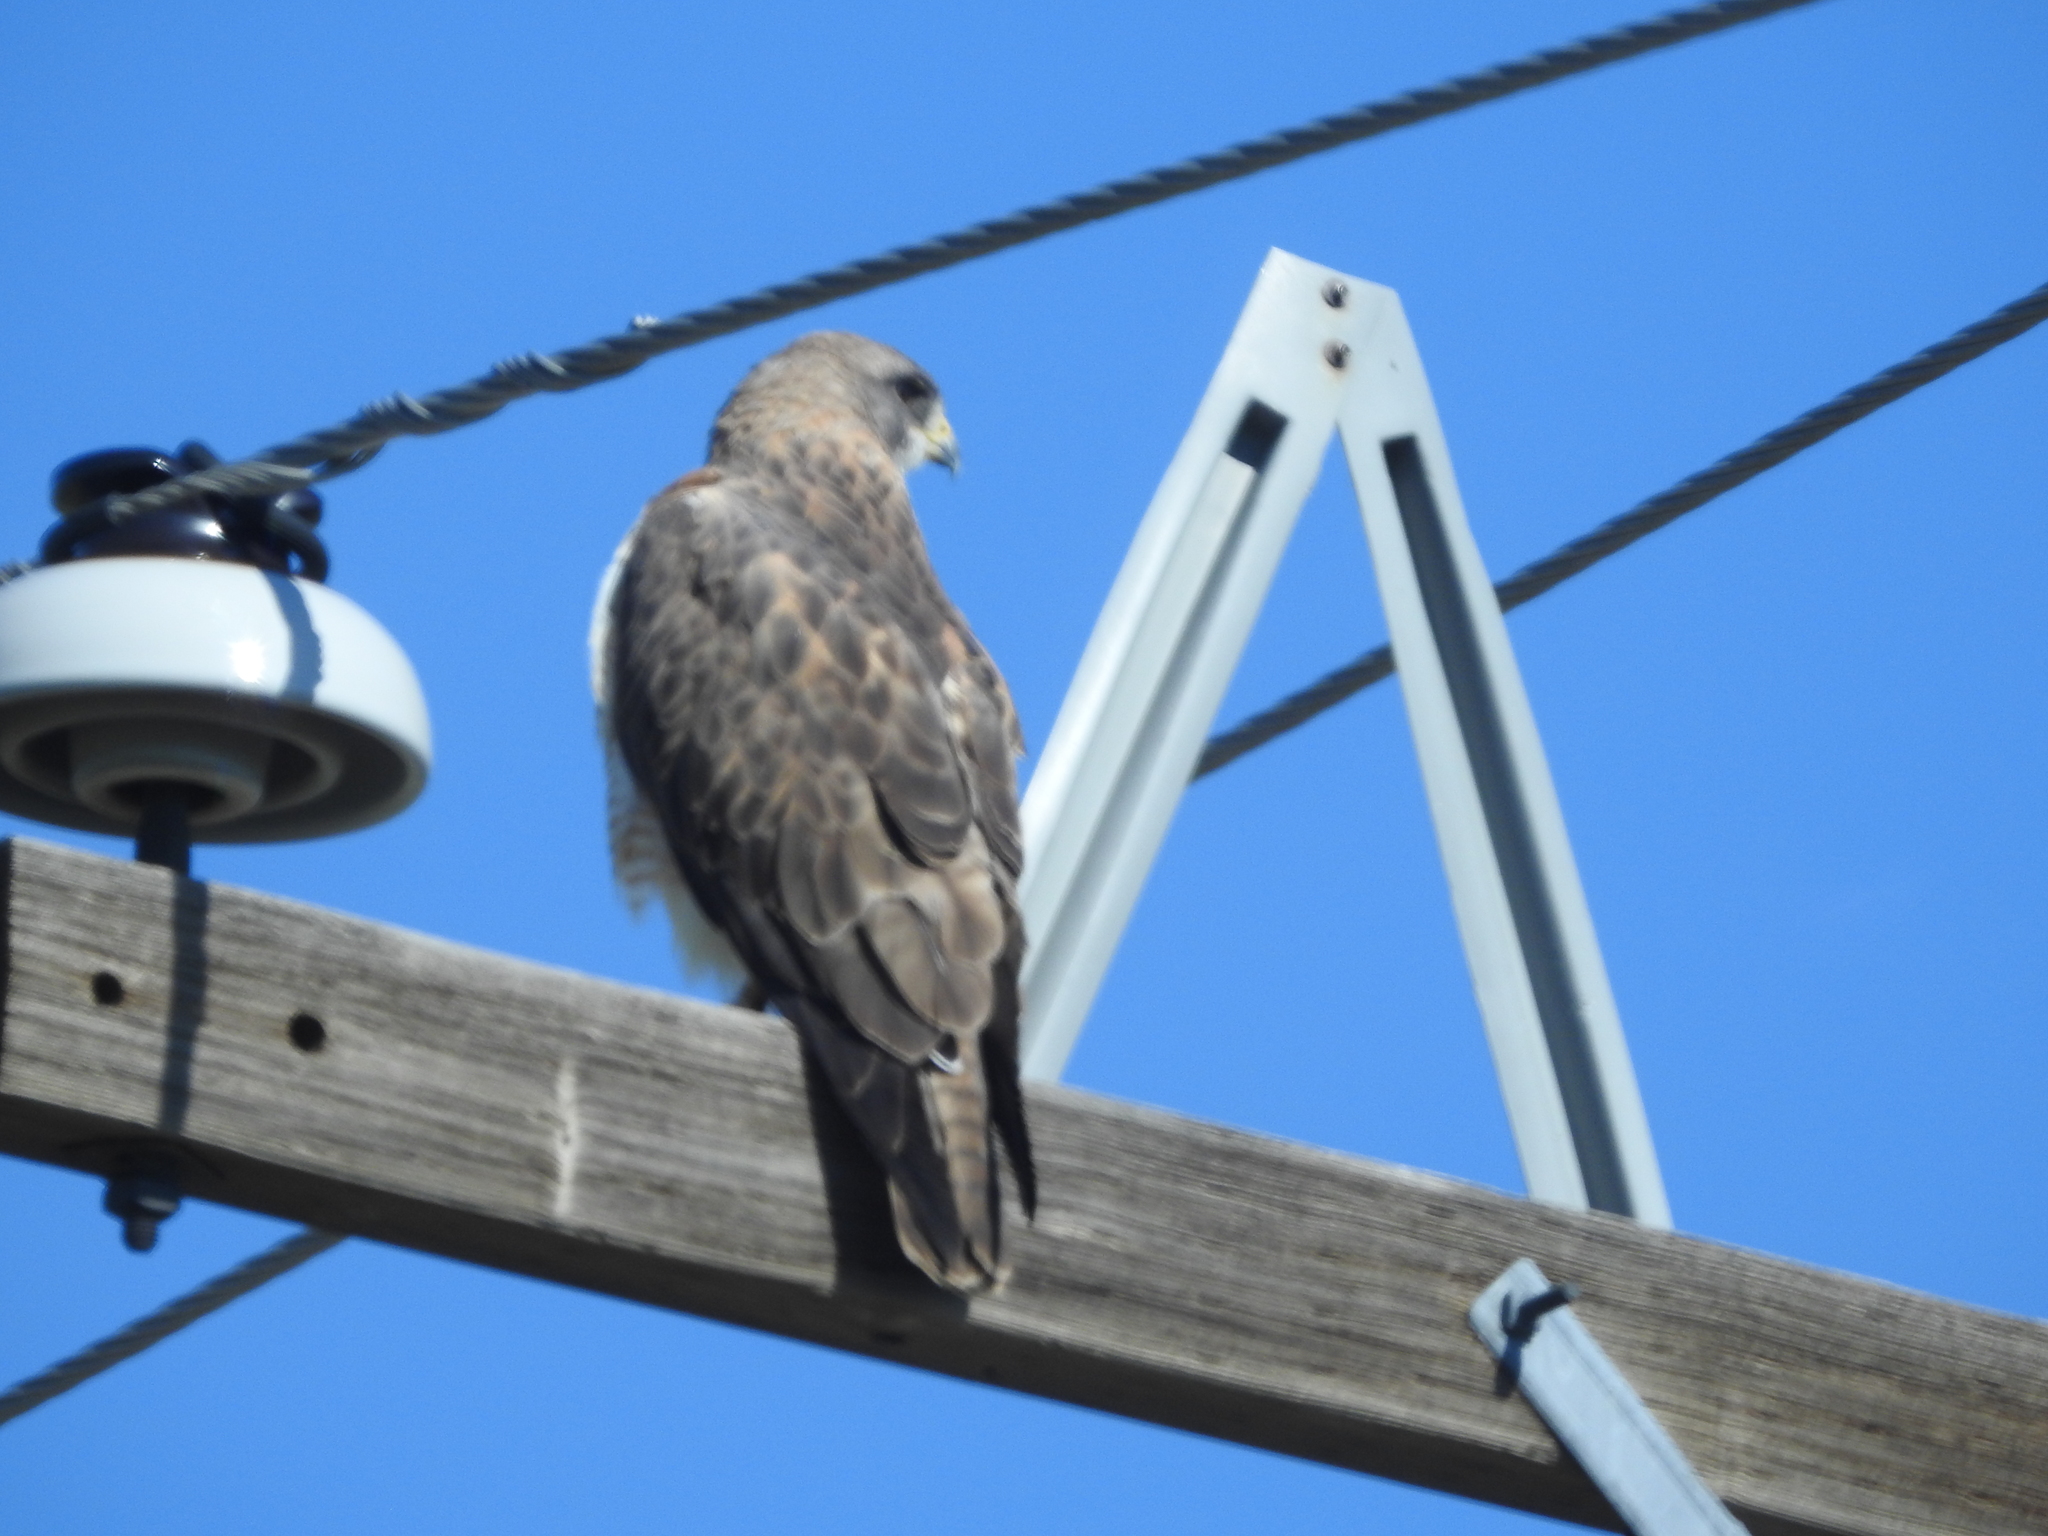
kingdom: Animalia
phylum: Chordata
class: Aves
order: Accipitriformes
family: Accipitridae
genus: Buteo
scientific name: Buteo swainsoni
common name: Swainson's hawk
